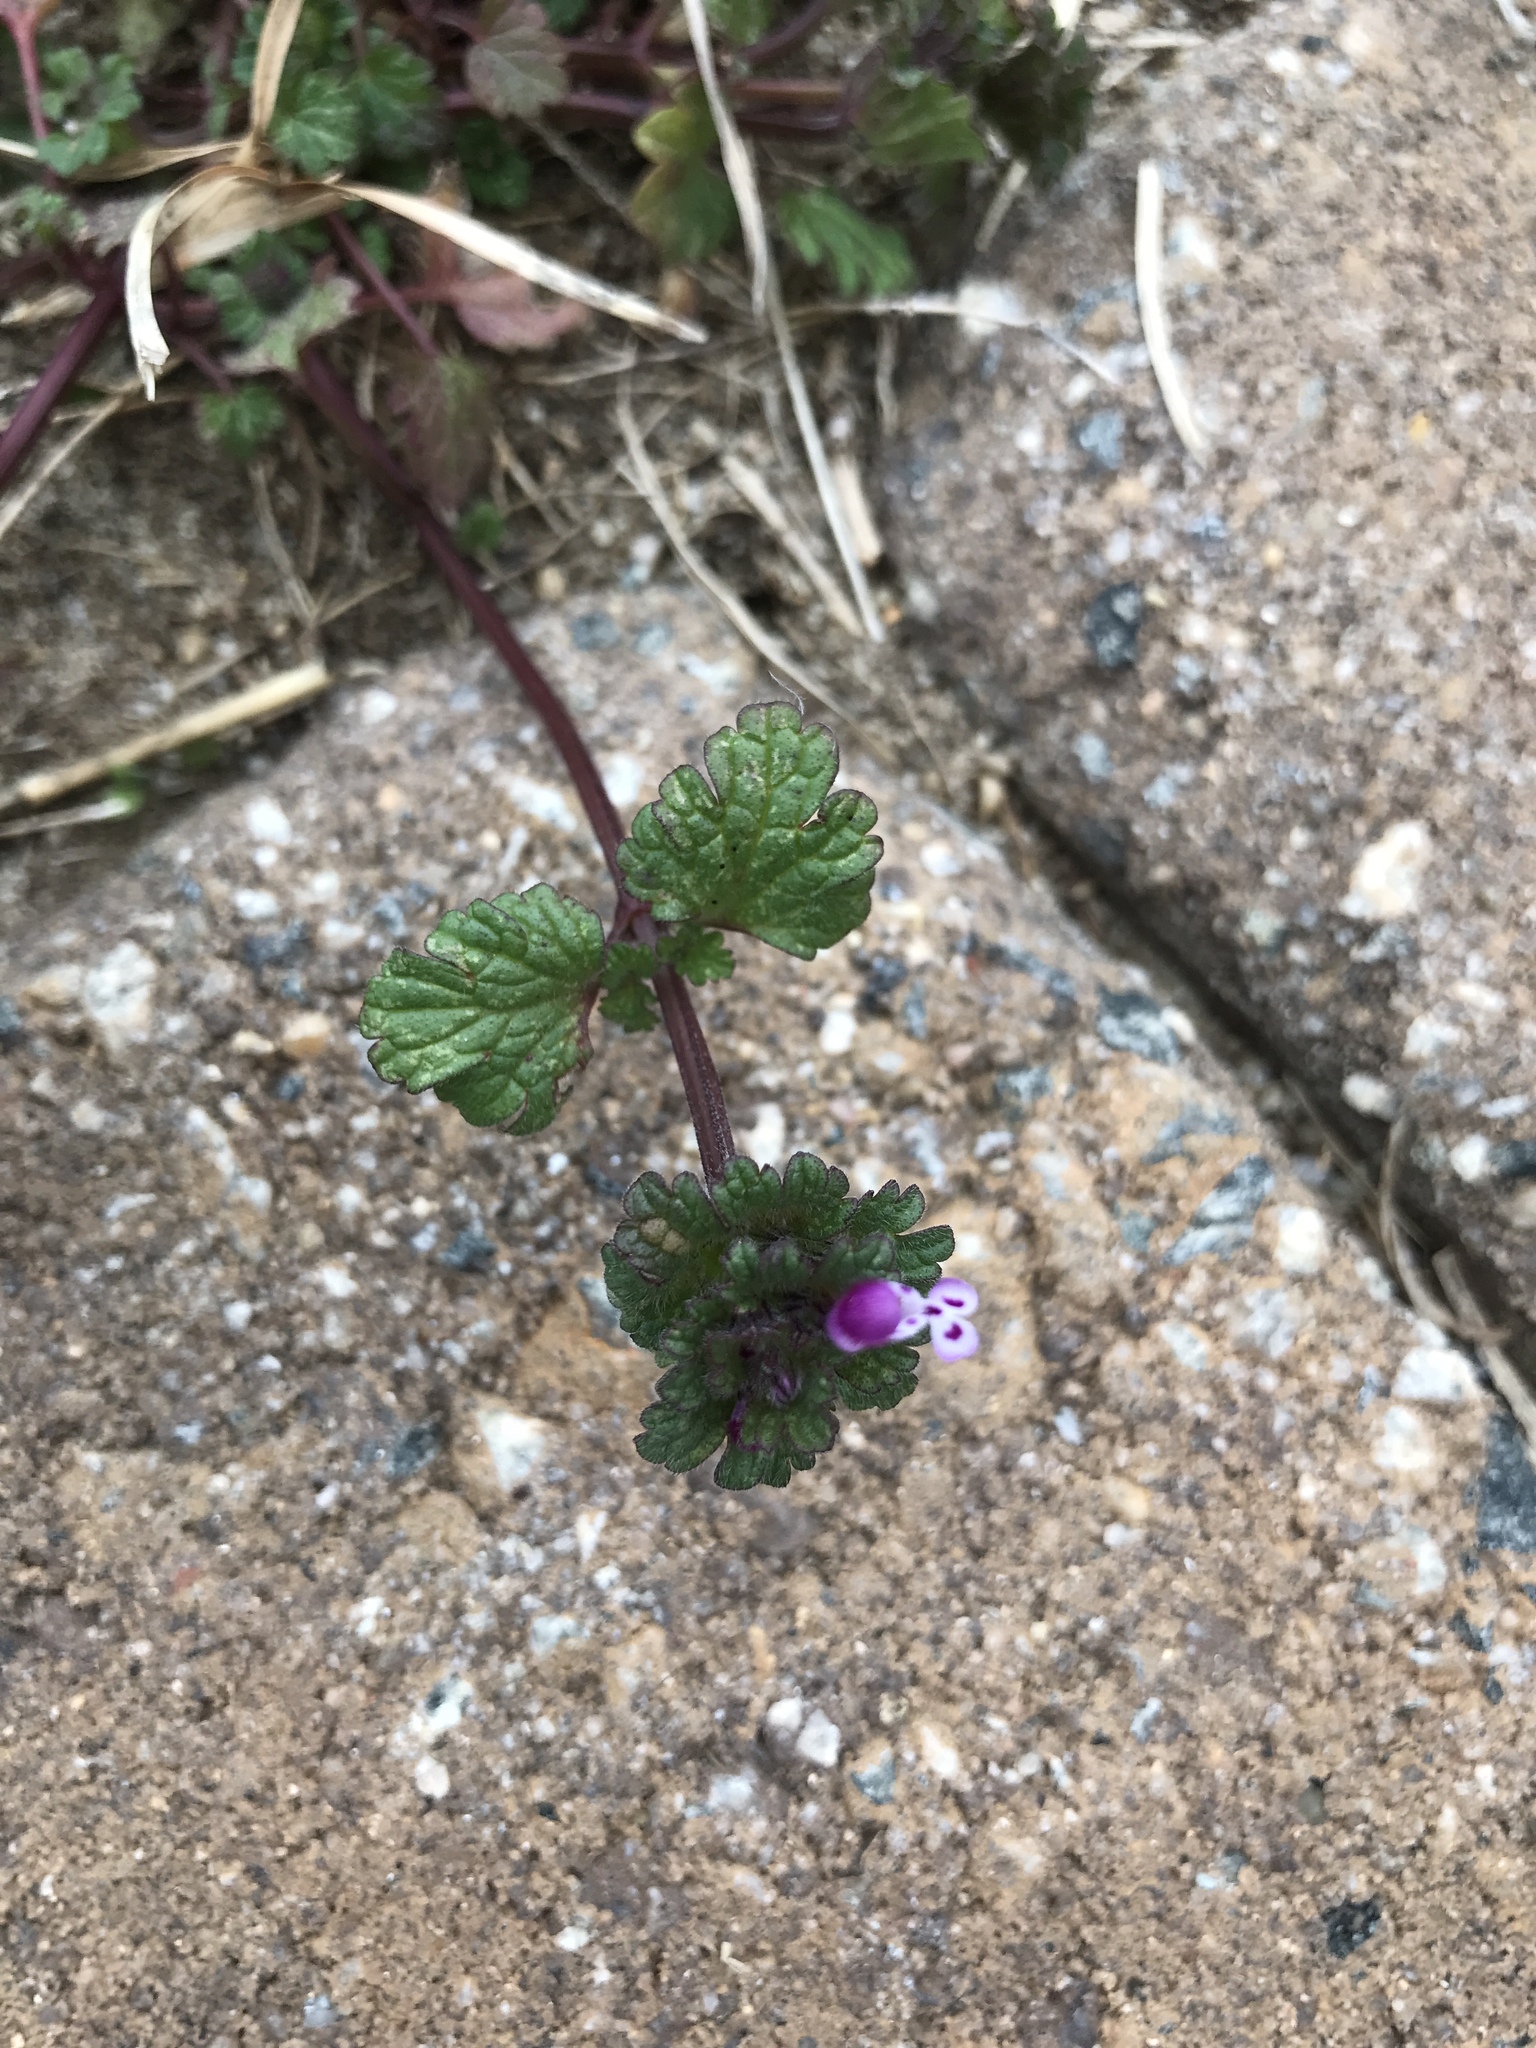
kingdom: Plantae
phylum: Tracheophyta
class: Magnoliopsida
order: Lamiales
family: Lamiaceae
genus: Lamium
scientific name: Lamium amplexicaule
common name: Henbit dead-nettle
